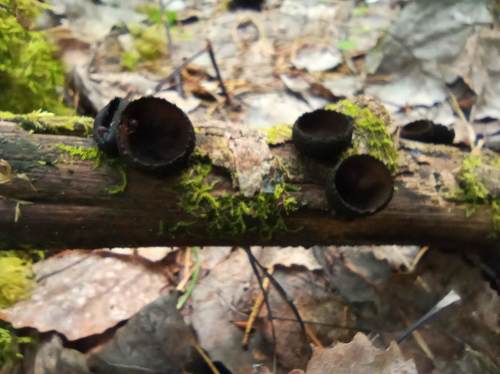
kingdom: Fungi
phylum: Ascomycota
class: Pezizomycetes
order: Pezizales
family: Sarcosomataceae
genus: Plectania
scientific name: Plectania melastoma
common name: Corona cup
